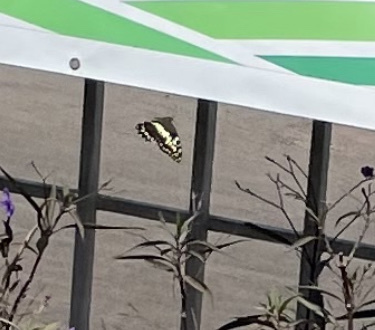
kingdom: Animalia
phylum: Arthropoda
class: Insecta
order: Lepidoptera
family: Papilionidae
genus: Papilio
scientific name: Papilio demodocus
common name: Christmas butterfly
